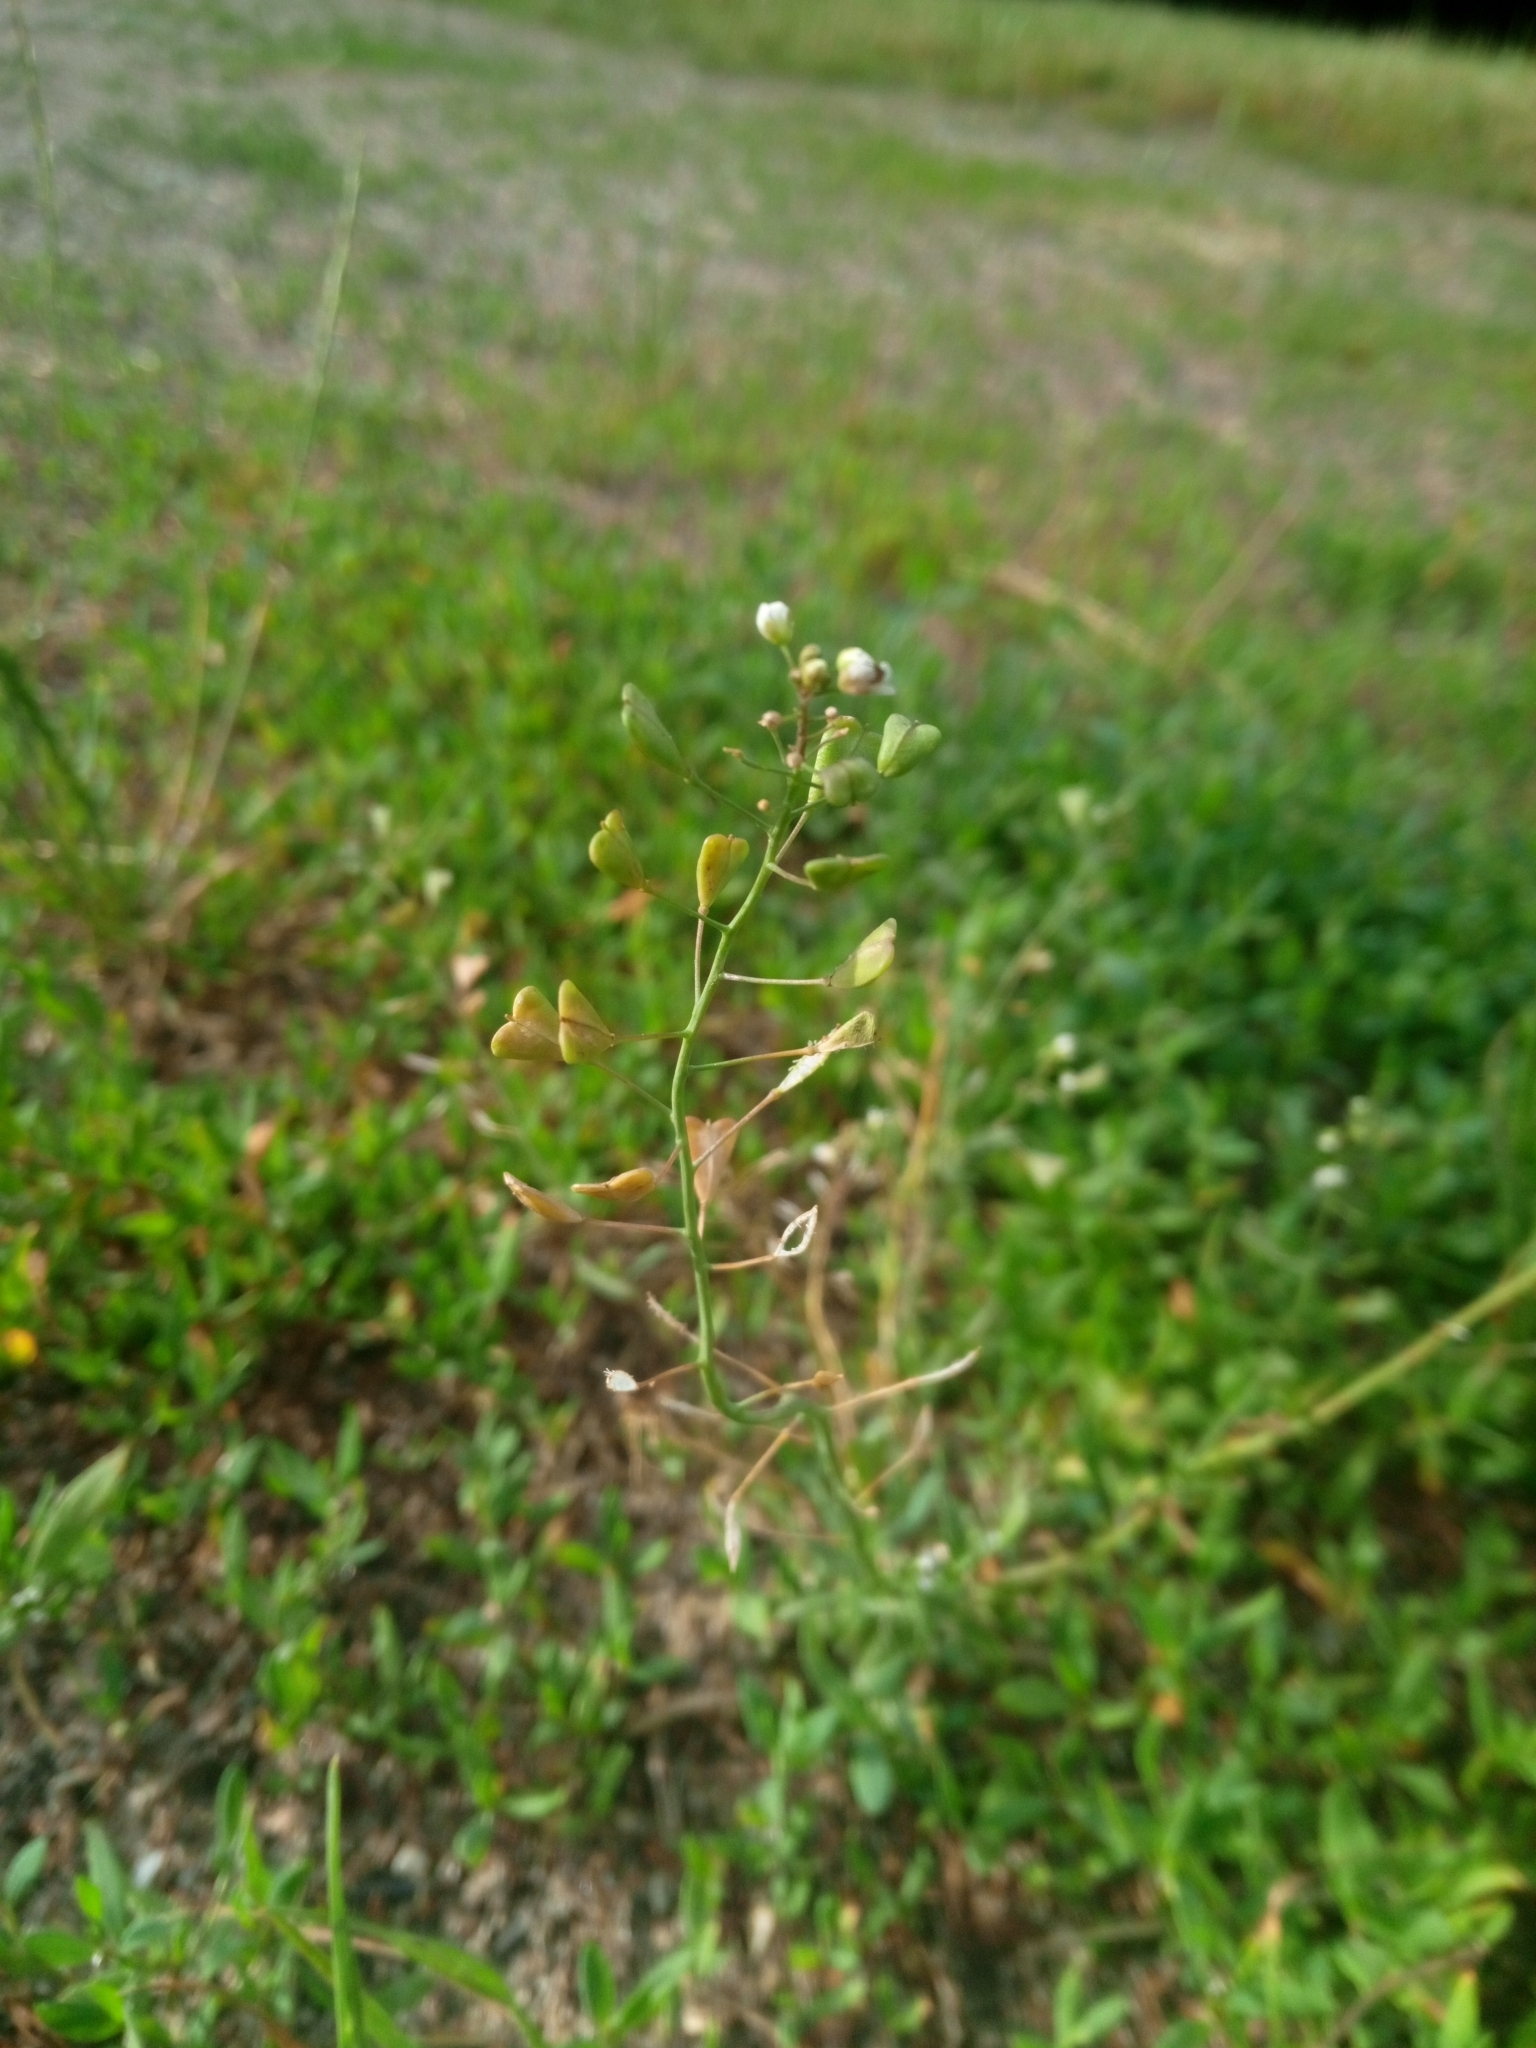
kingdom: Plantae
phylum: Tracheophyta
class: Magnoliopsida
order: Brassicales
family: Brassicaceae
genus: Capsella
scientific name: Capsella bursa-pastoris
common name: Shepherd's purse
